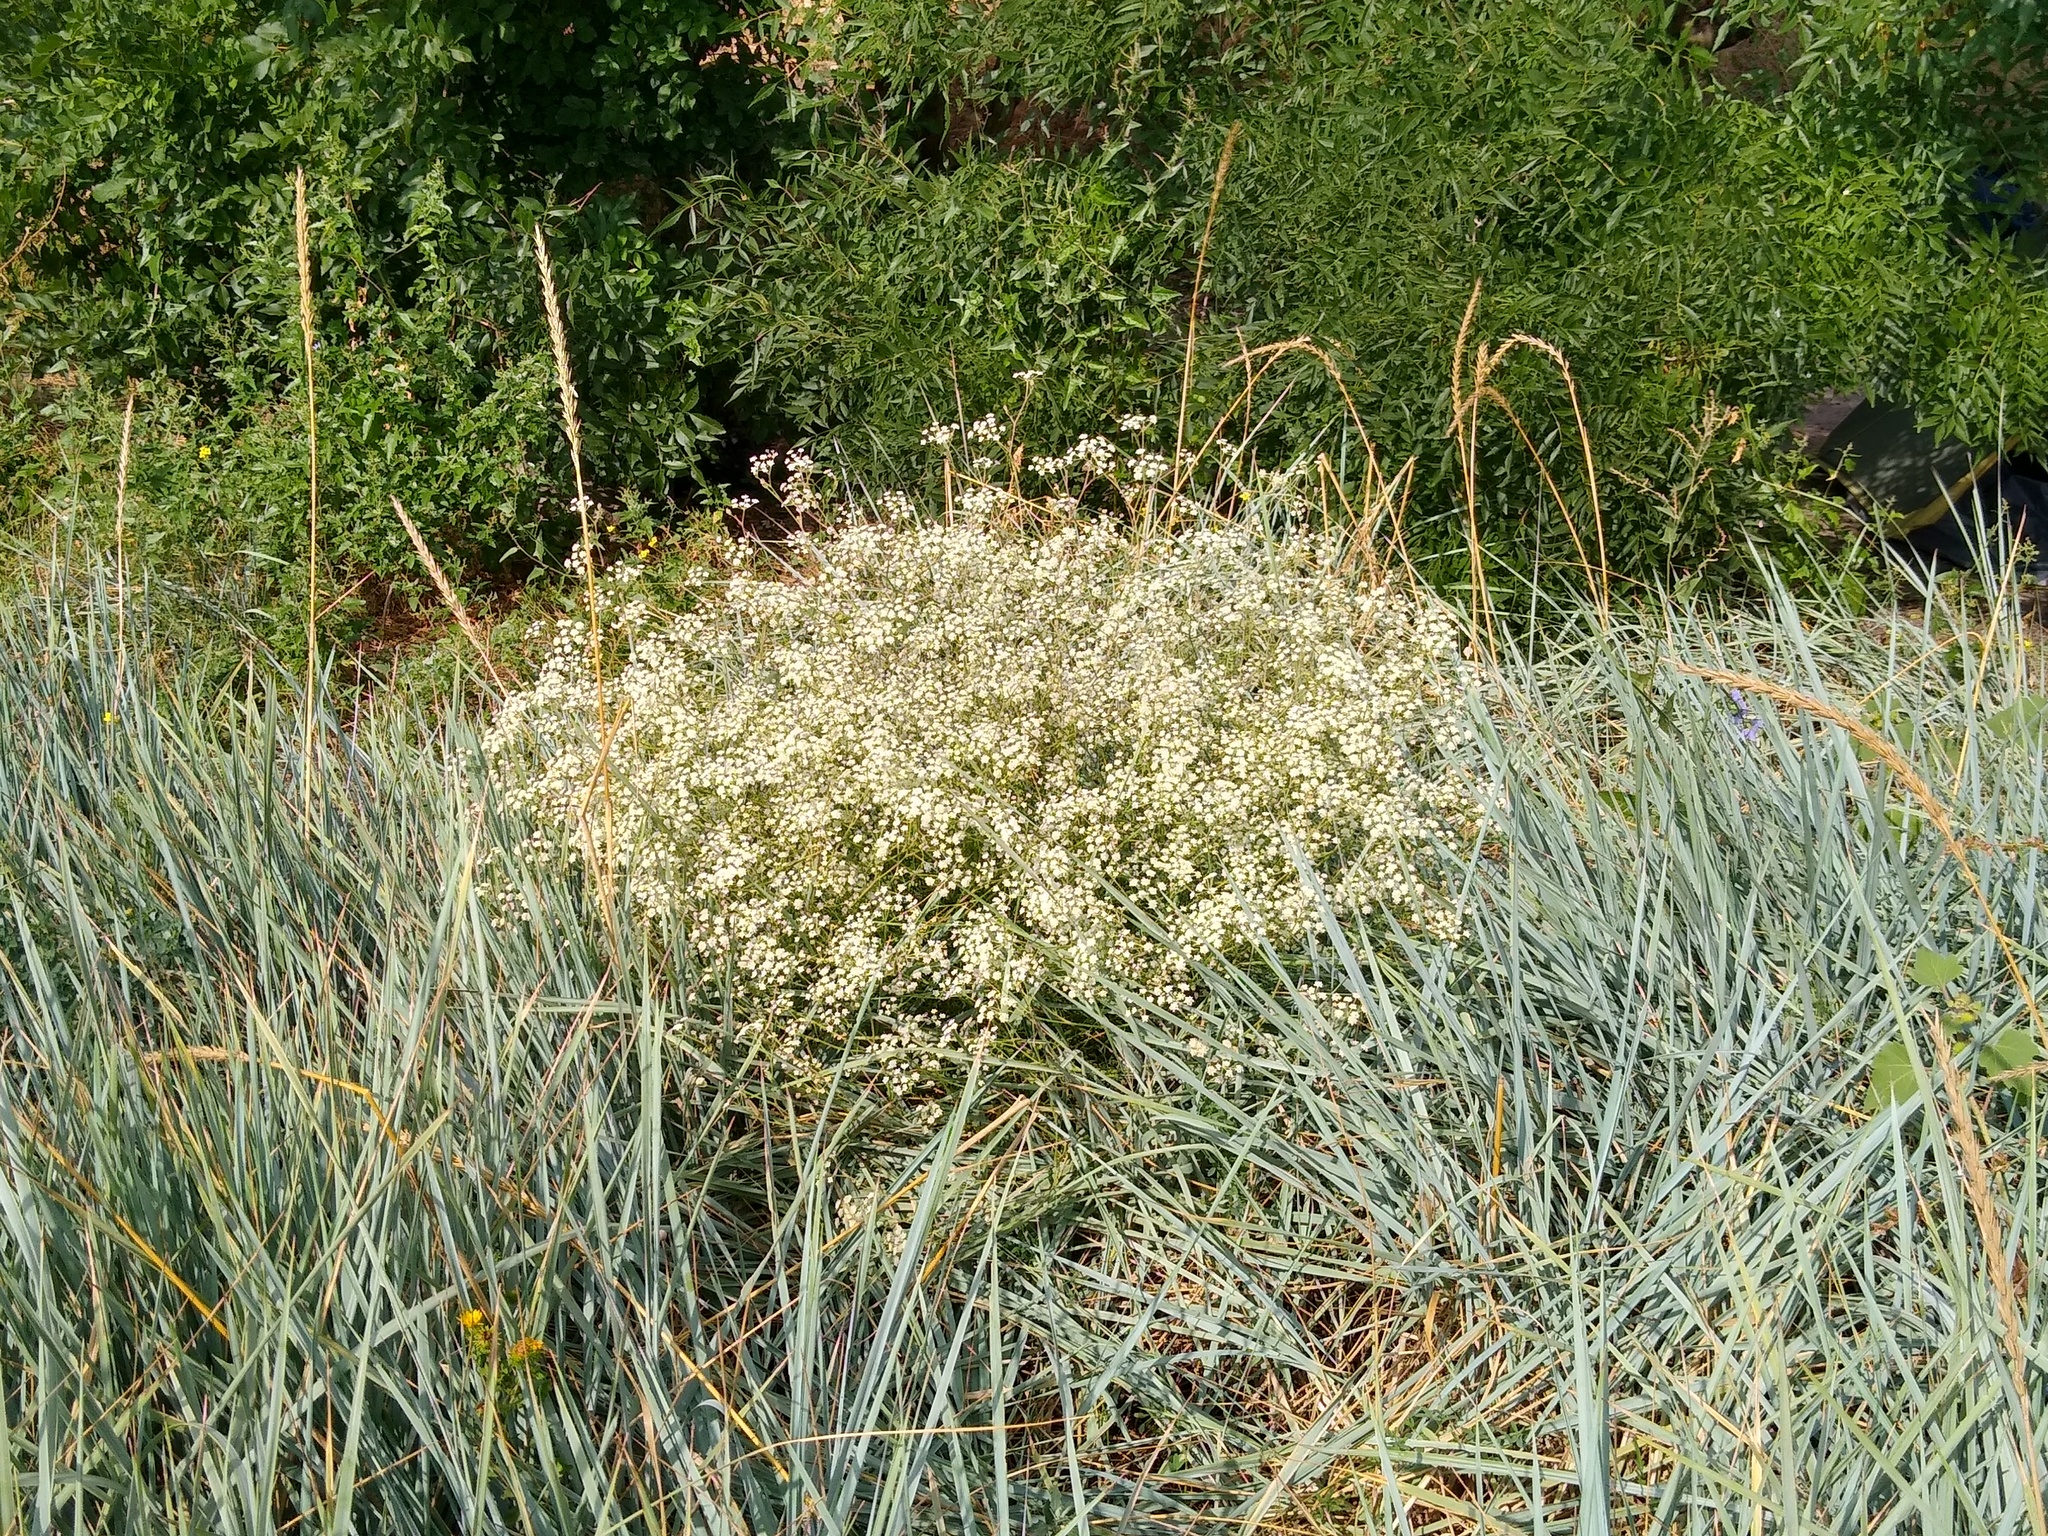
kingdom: Plantae
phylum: Tracheophyta
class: Magnoliopsida
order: Apiales
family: Apiaceae
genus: Seseli
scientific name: Seseli arenarium
